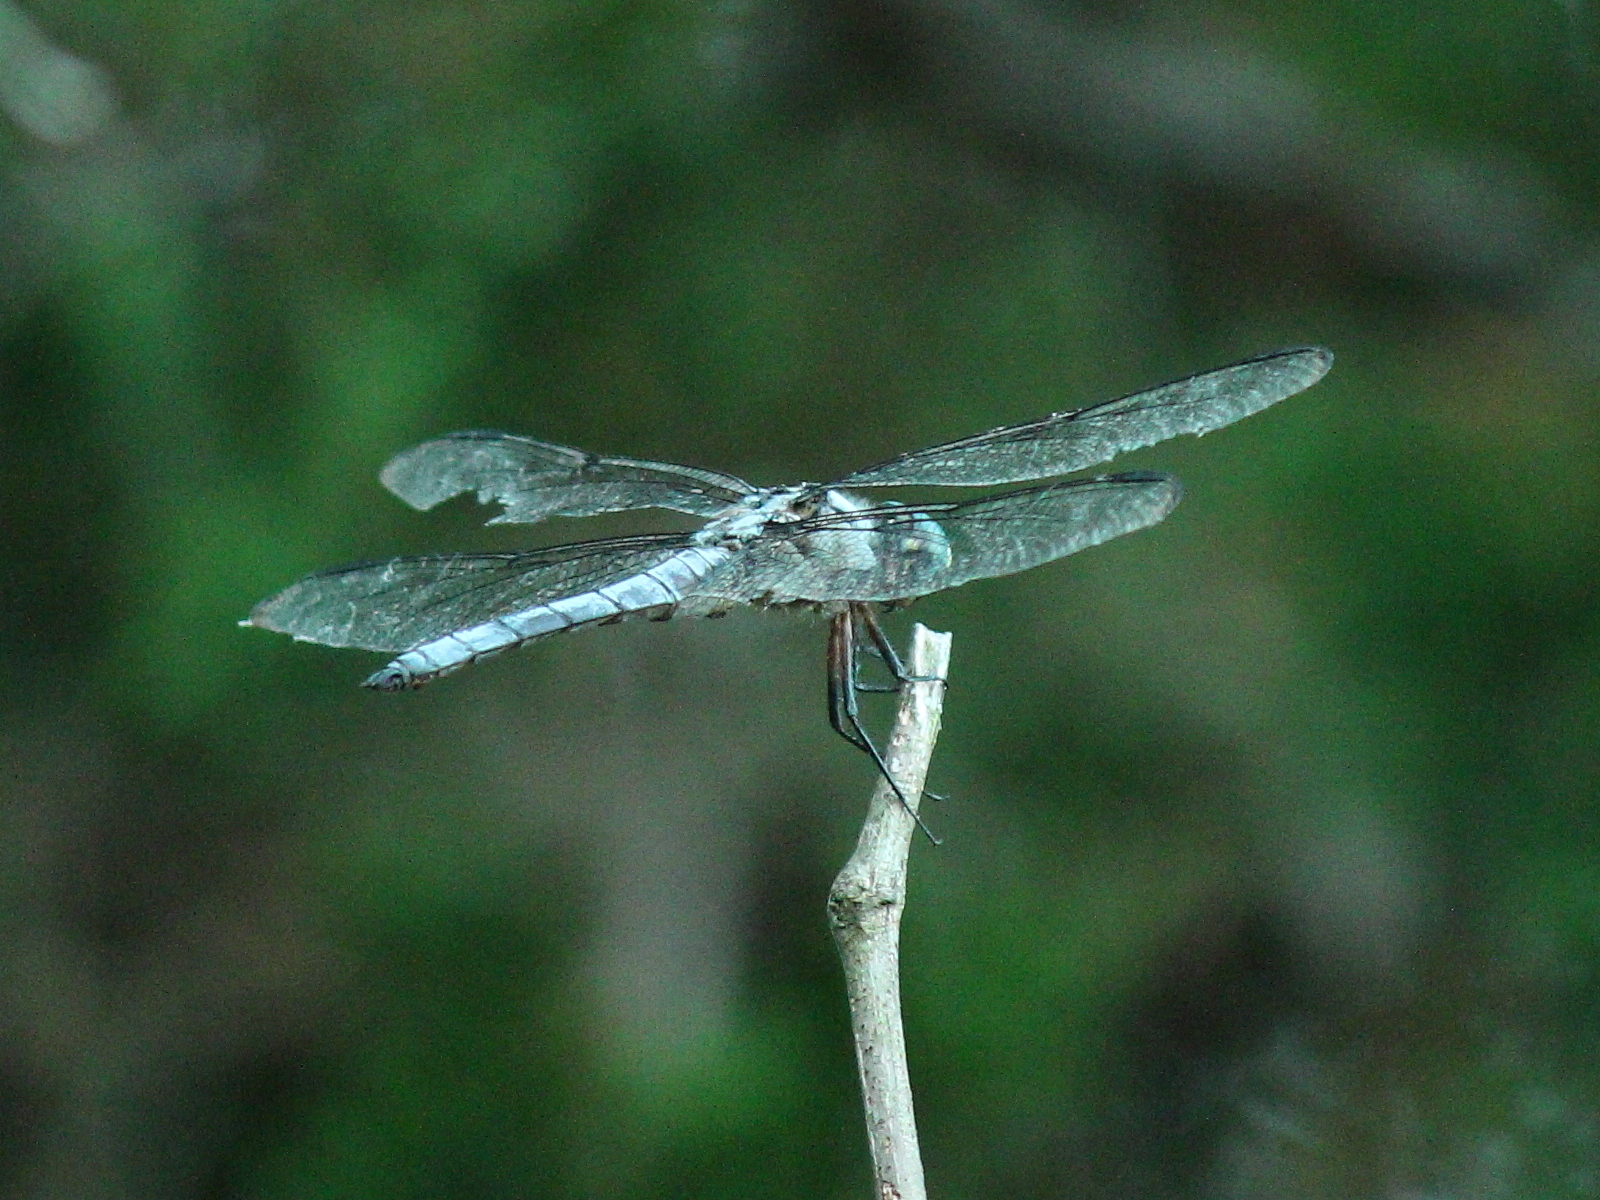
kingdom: Animalia
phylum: Arthropoda
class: Insecta
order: Odonata
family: Libellulidae
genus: Libellula
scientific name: Libellula vibrans
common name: Great blue skimmer
